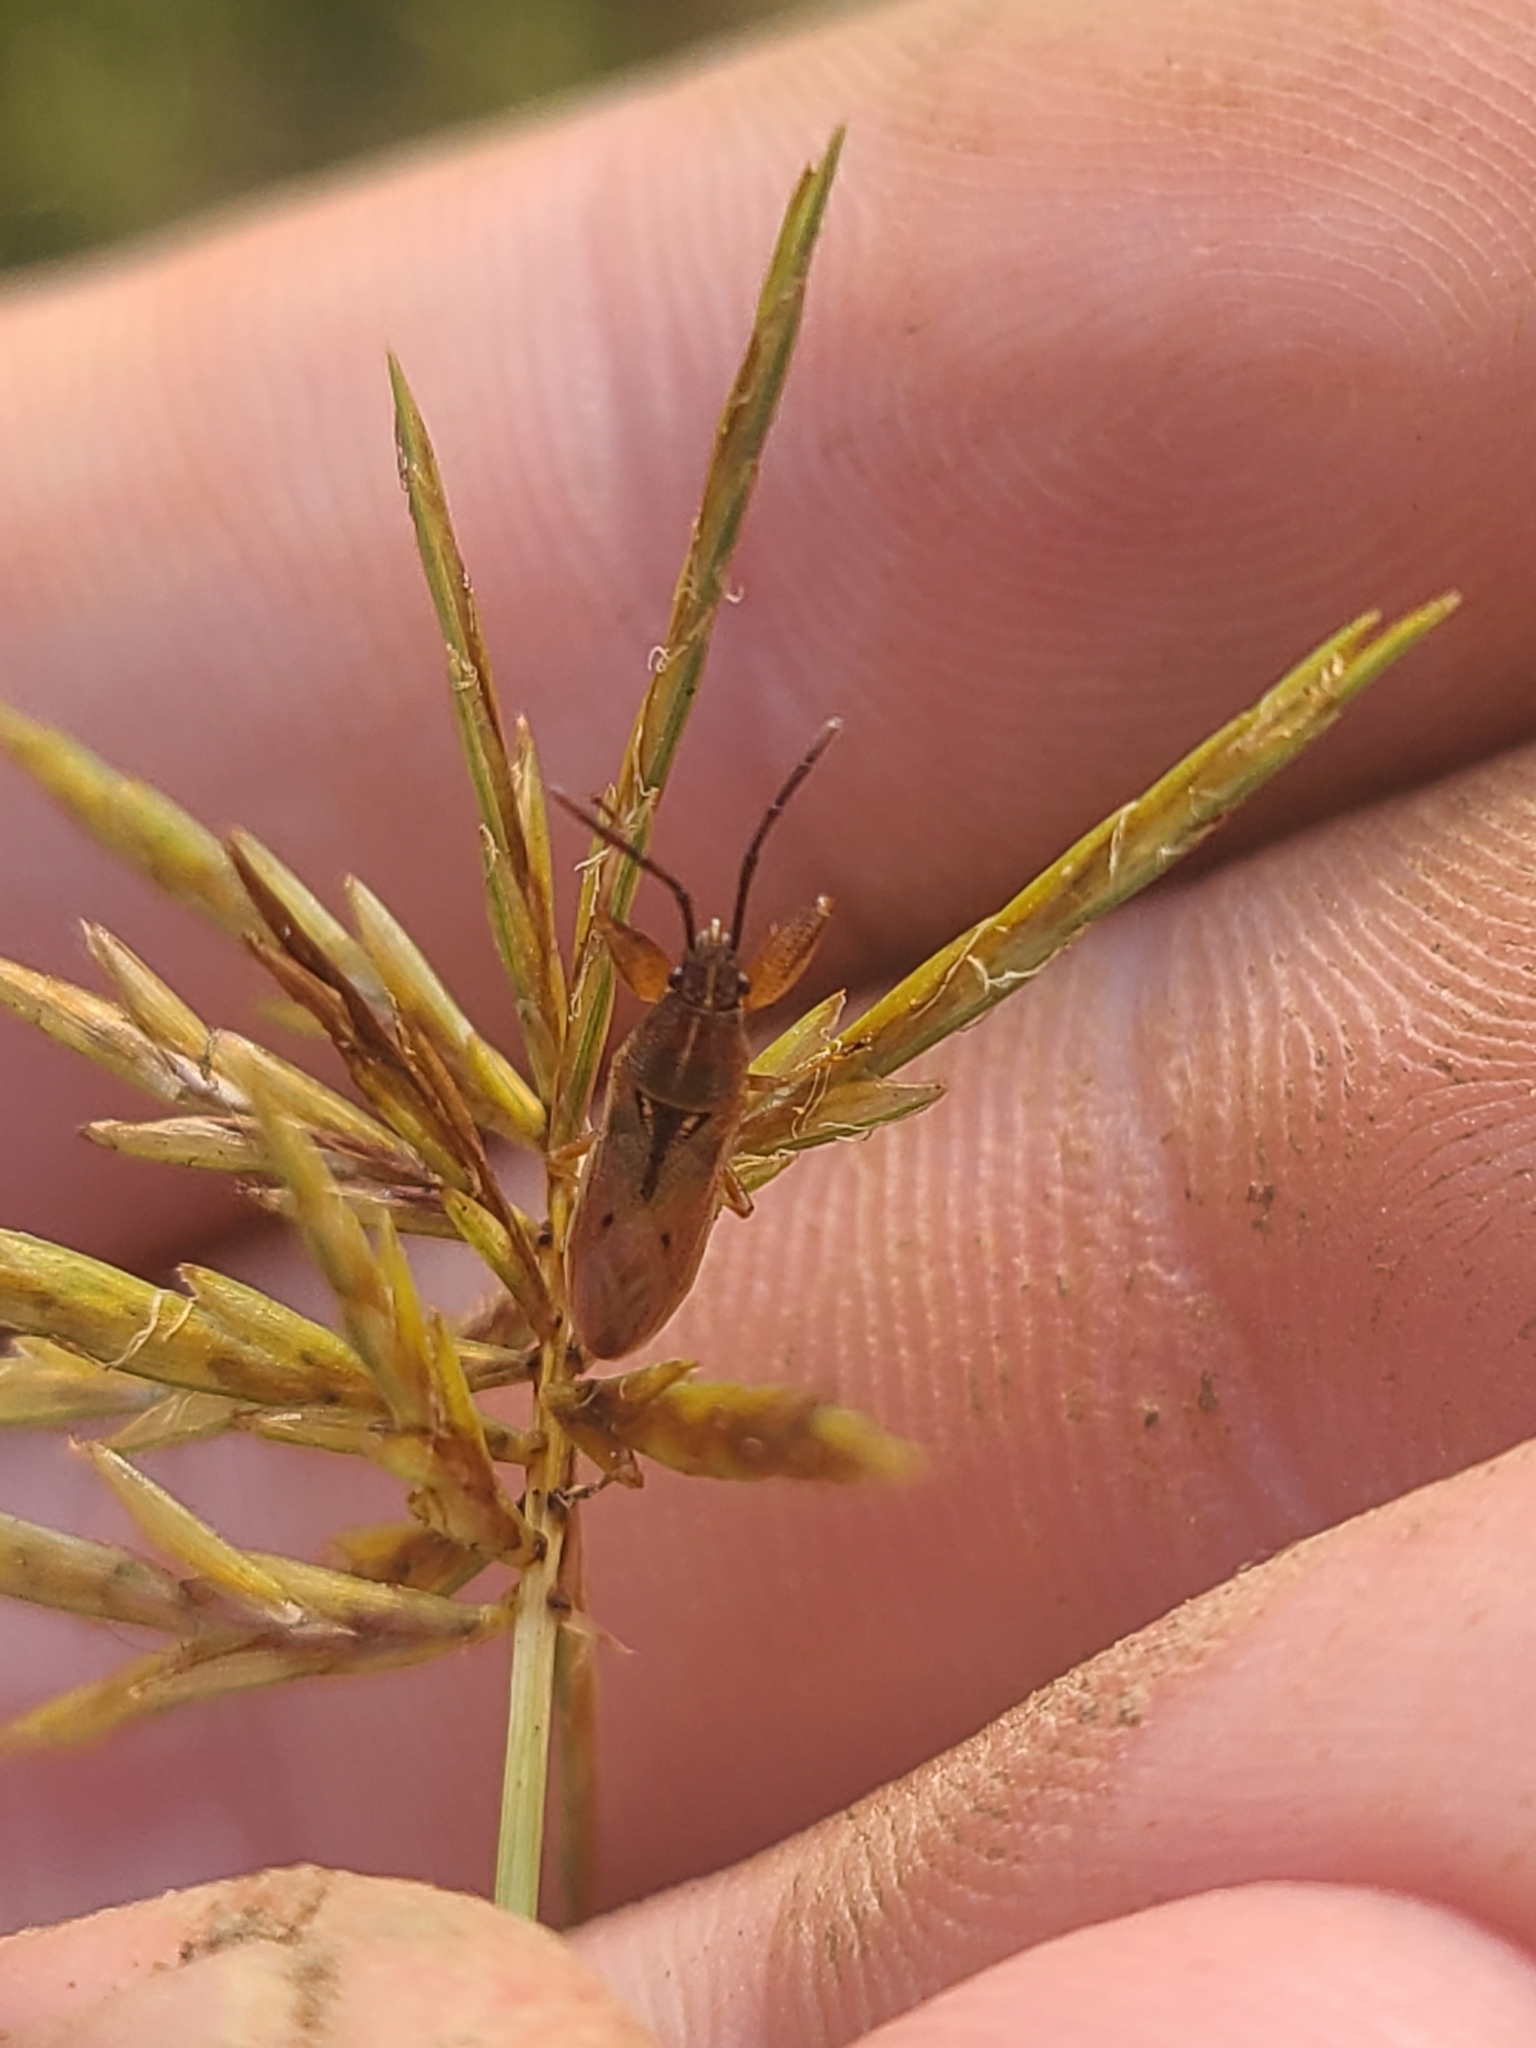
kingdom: Animalia
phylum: Arthropoda
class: Insecta
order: Hemiptera
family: Pachygronthidae
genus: Oedancala
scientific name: Oedancala crassimana
